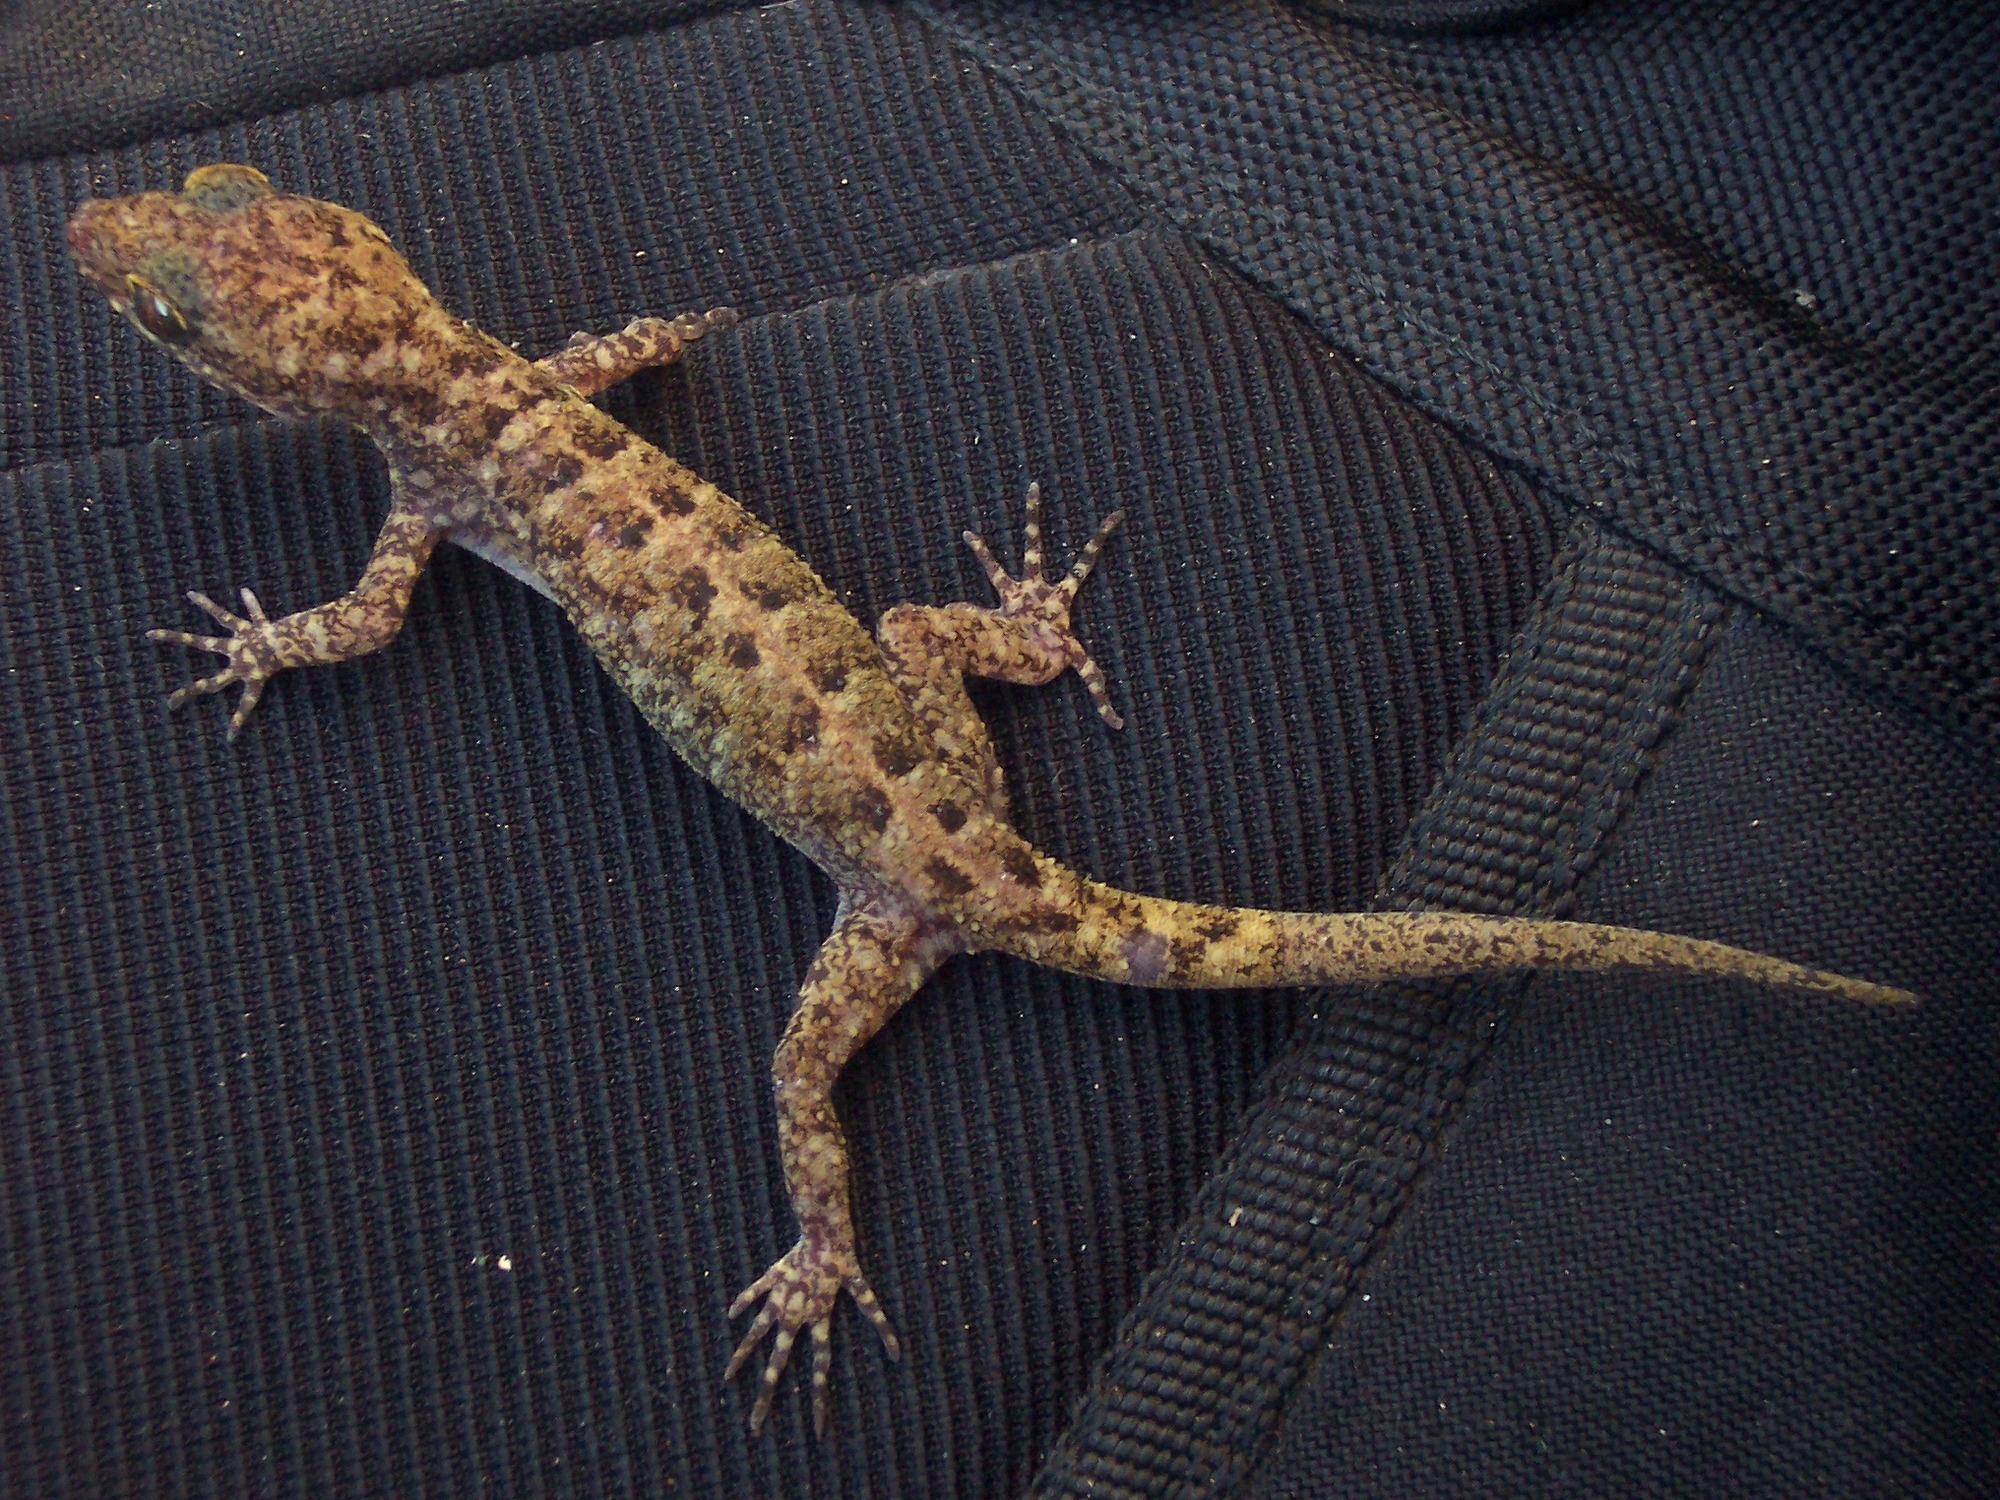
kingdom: Animalia
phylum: Chordata
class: Squamata
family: Gekkonidae
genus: Cyrtodactylus
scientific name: Cyrtodactylus marmoratus
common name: Marbled bow-fingered gecko
